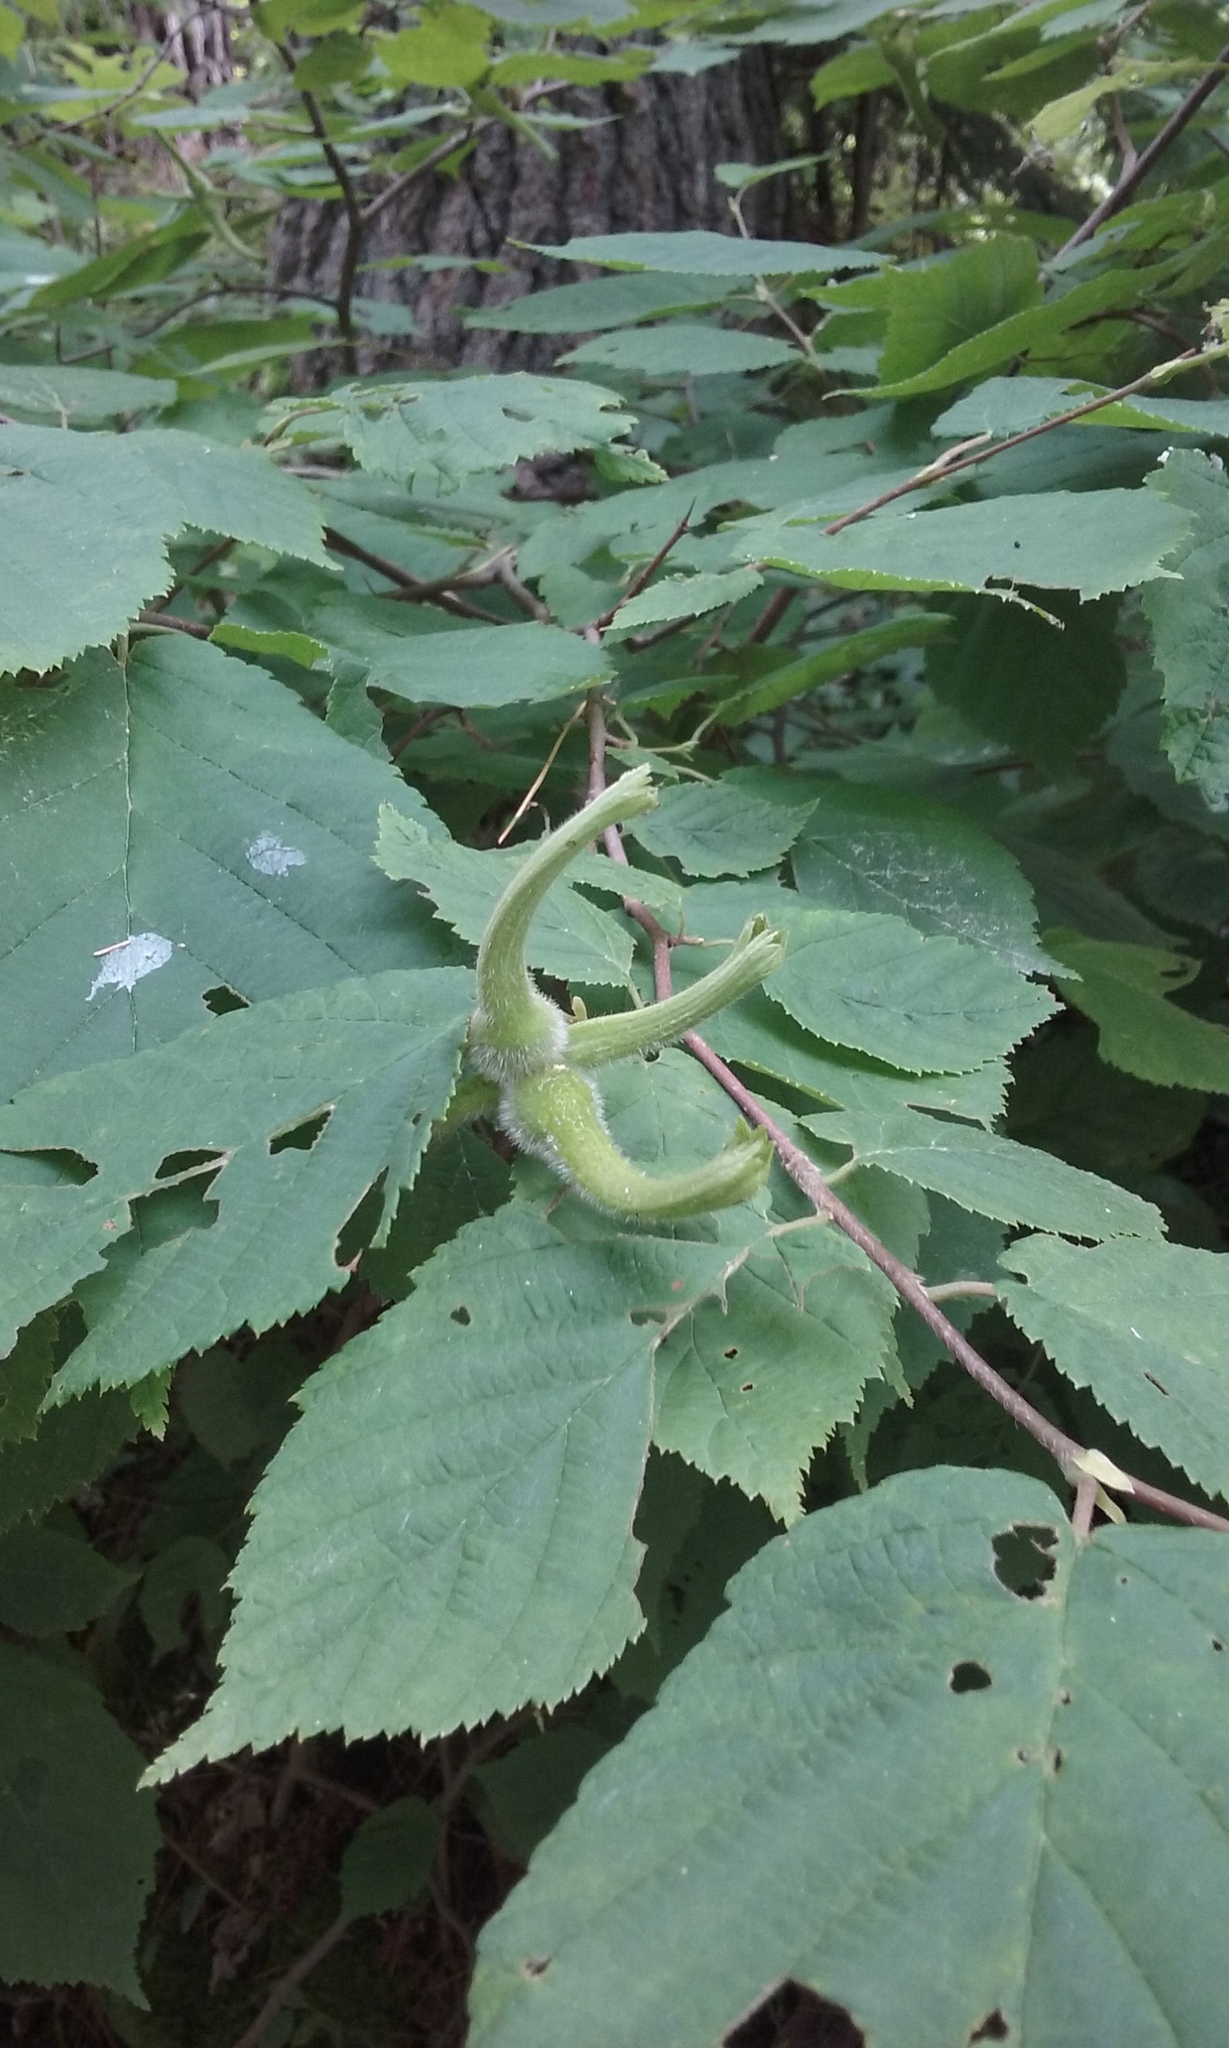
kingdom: Plantae
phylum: Tracheophyta
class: Magnoliopsida
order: Fagales
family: Betulaceae
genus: Corylus
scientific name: Corylus cornuta
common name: Beaked hazel
